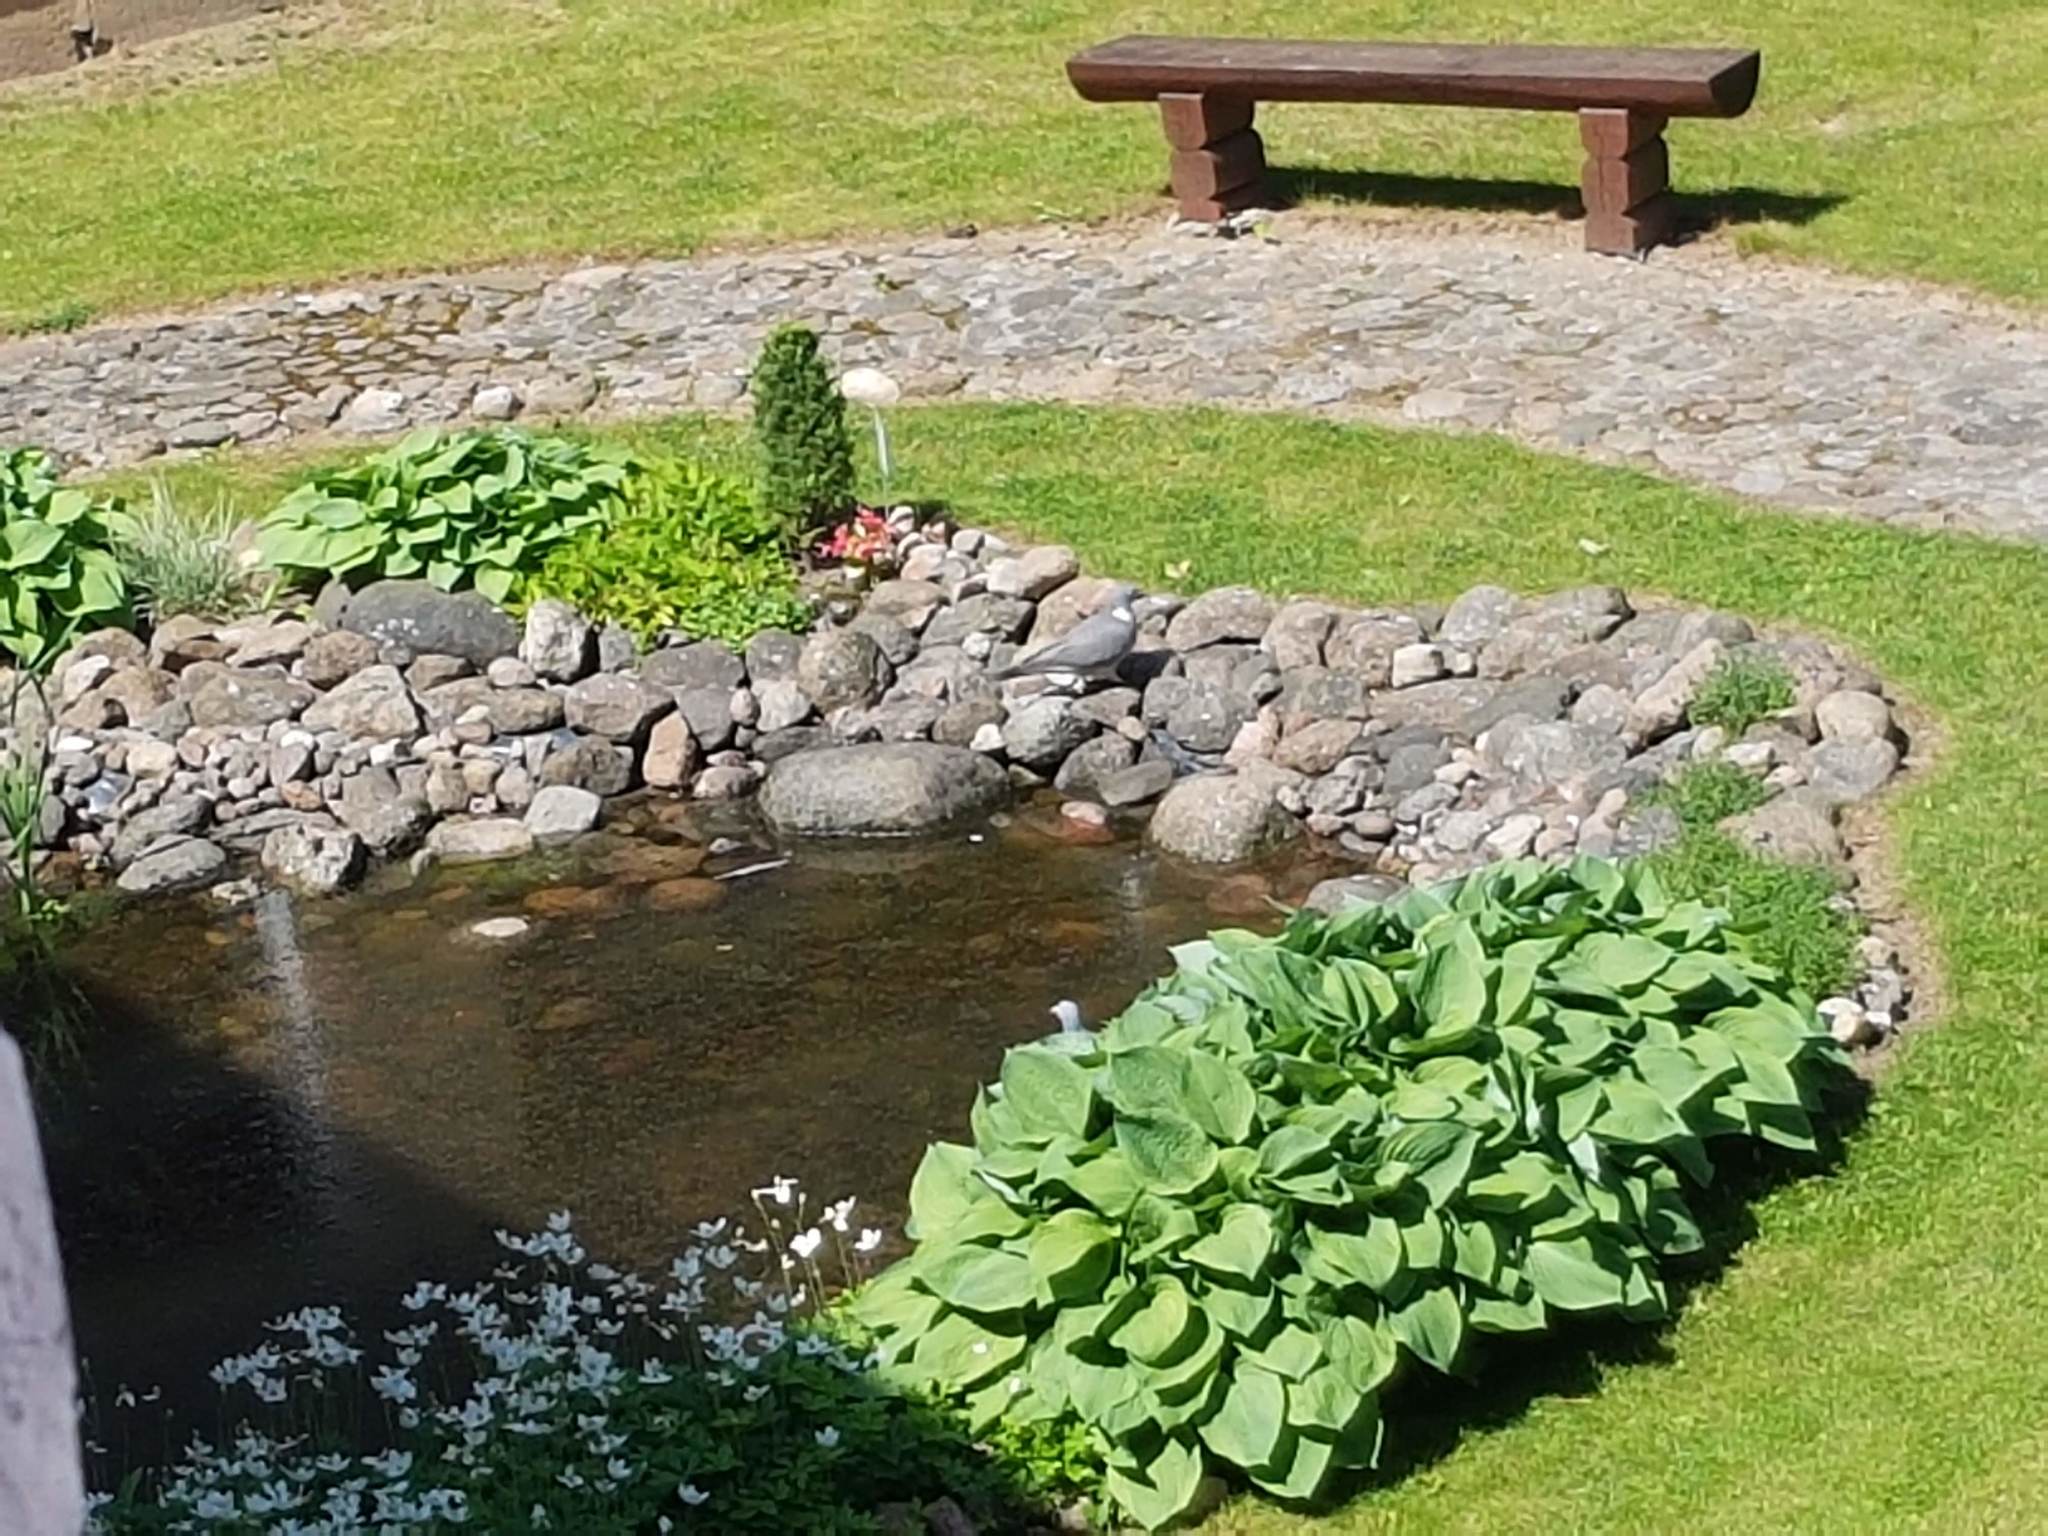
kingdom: Animalia
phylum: Chordata
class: Aves
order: Columbiformes
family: Columbidae
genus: Columba
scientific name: Columba palumbus
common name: Common wood pigeon
